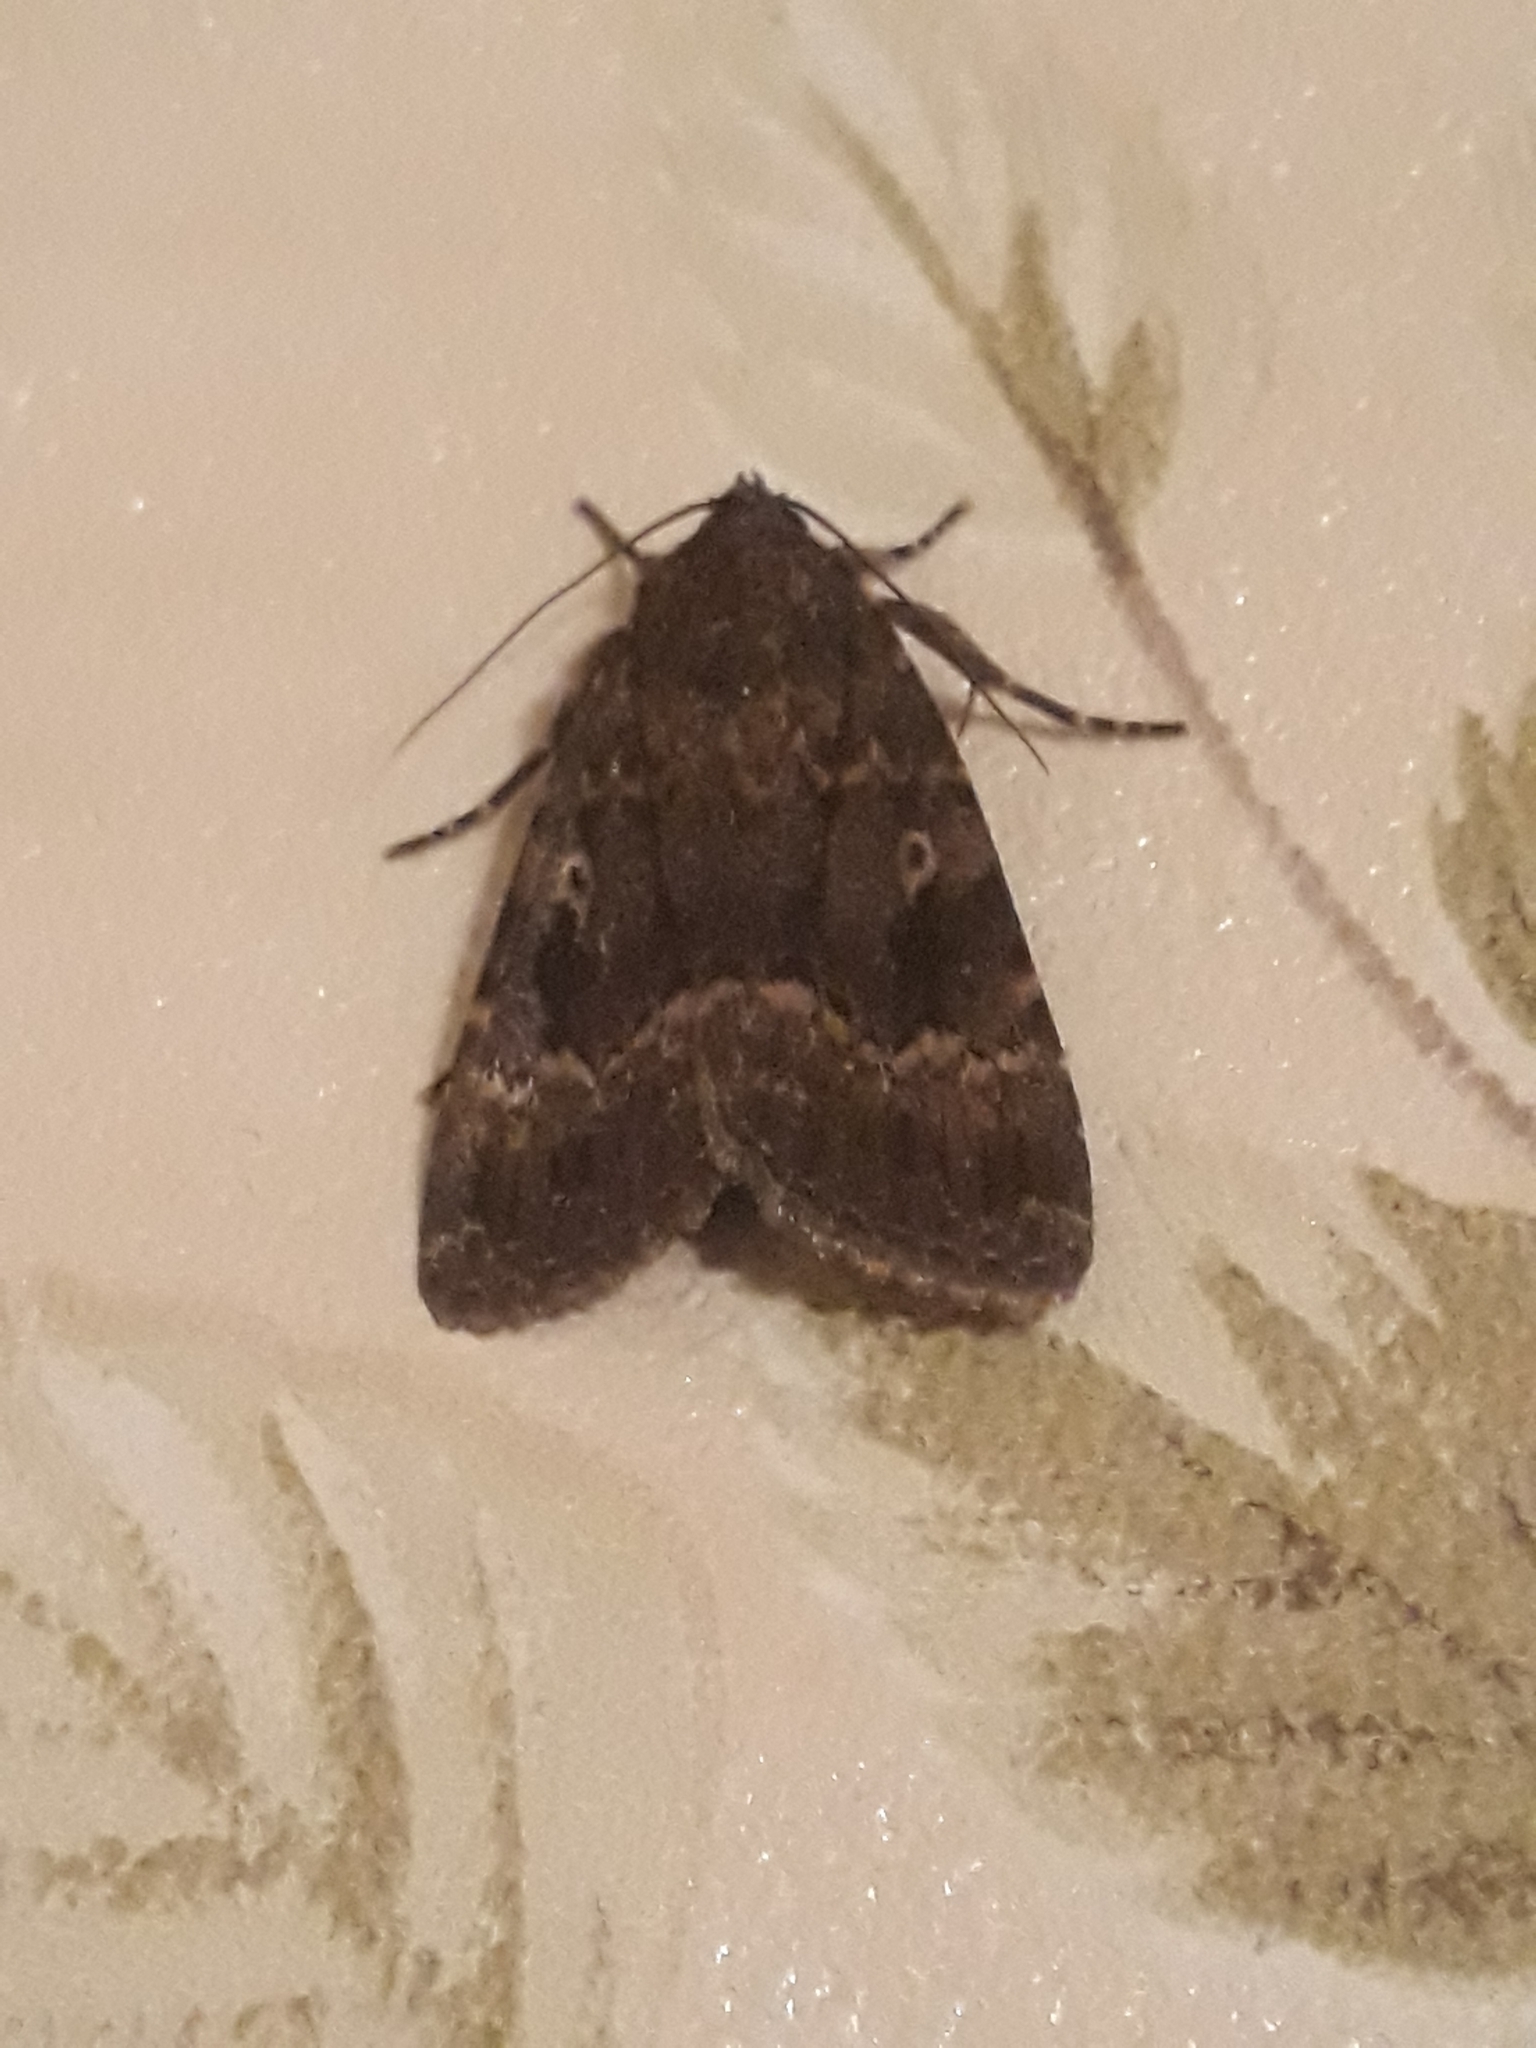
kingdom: Animalia
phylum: Arthropoda
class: Insecta
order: Lepidoptera
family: Noctuidae
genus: Amphipyra
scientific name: Amphipyra pyramidea
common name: Copper underwing
